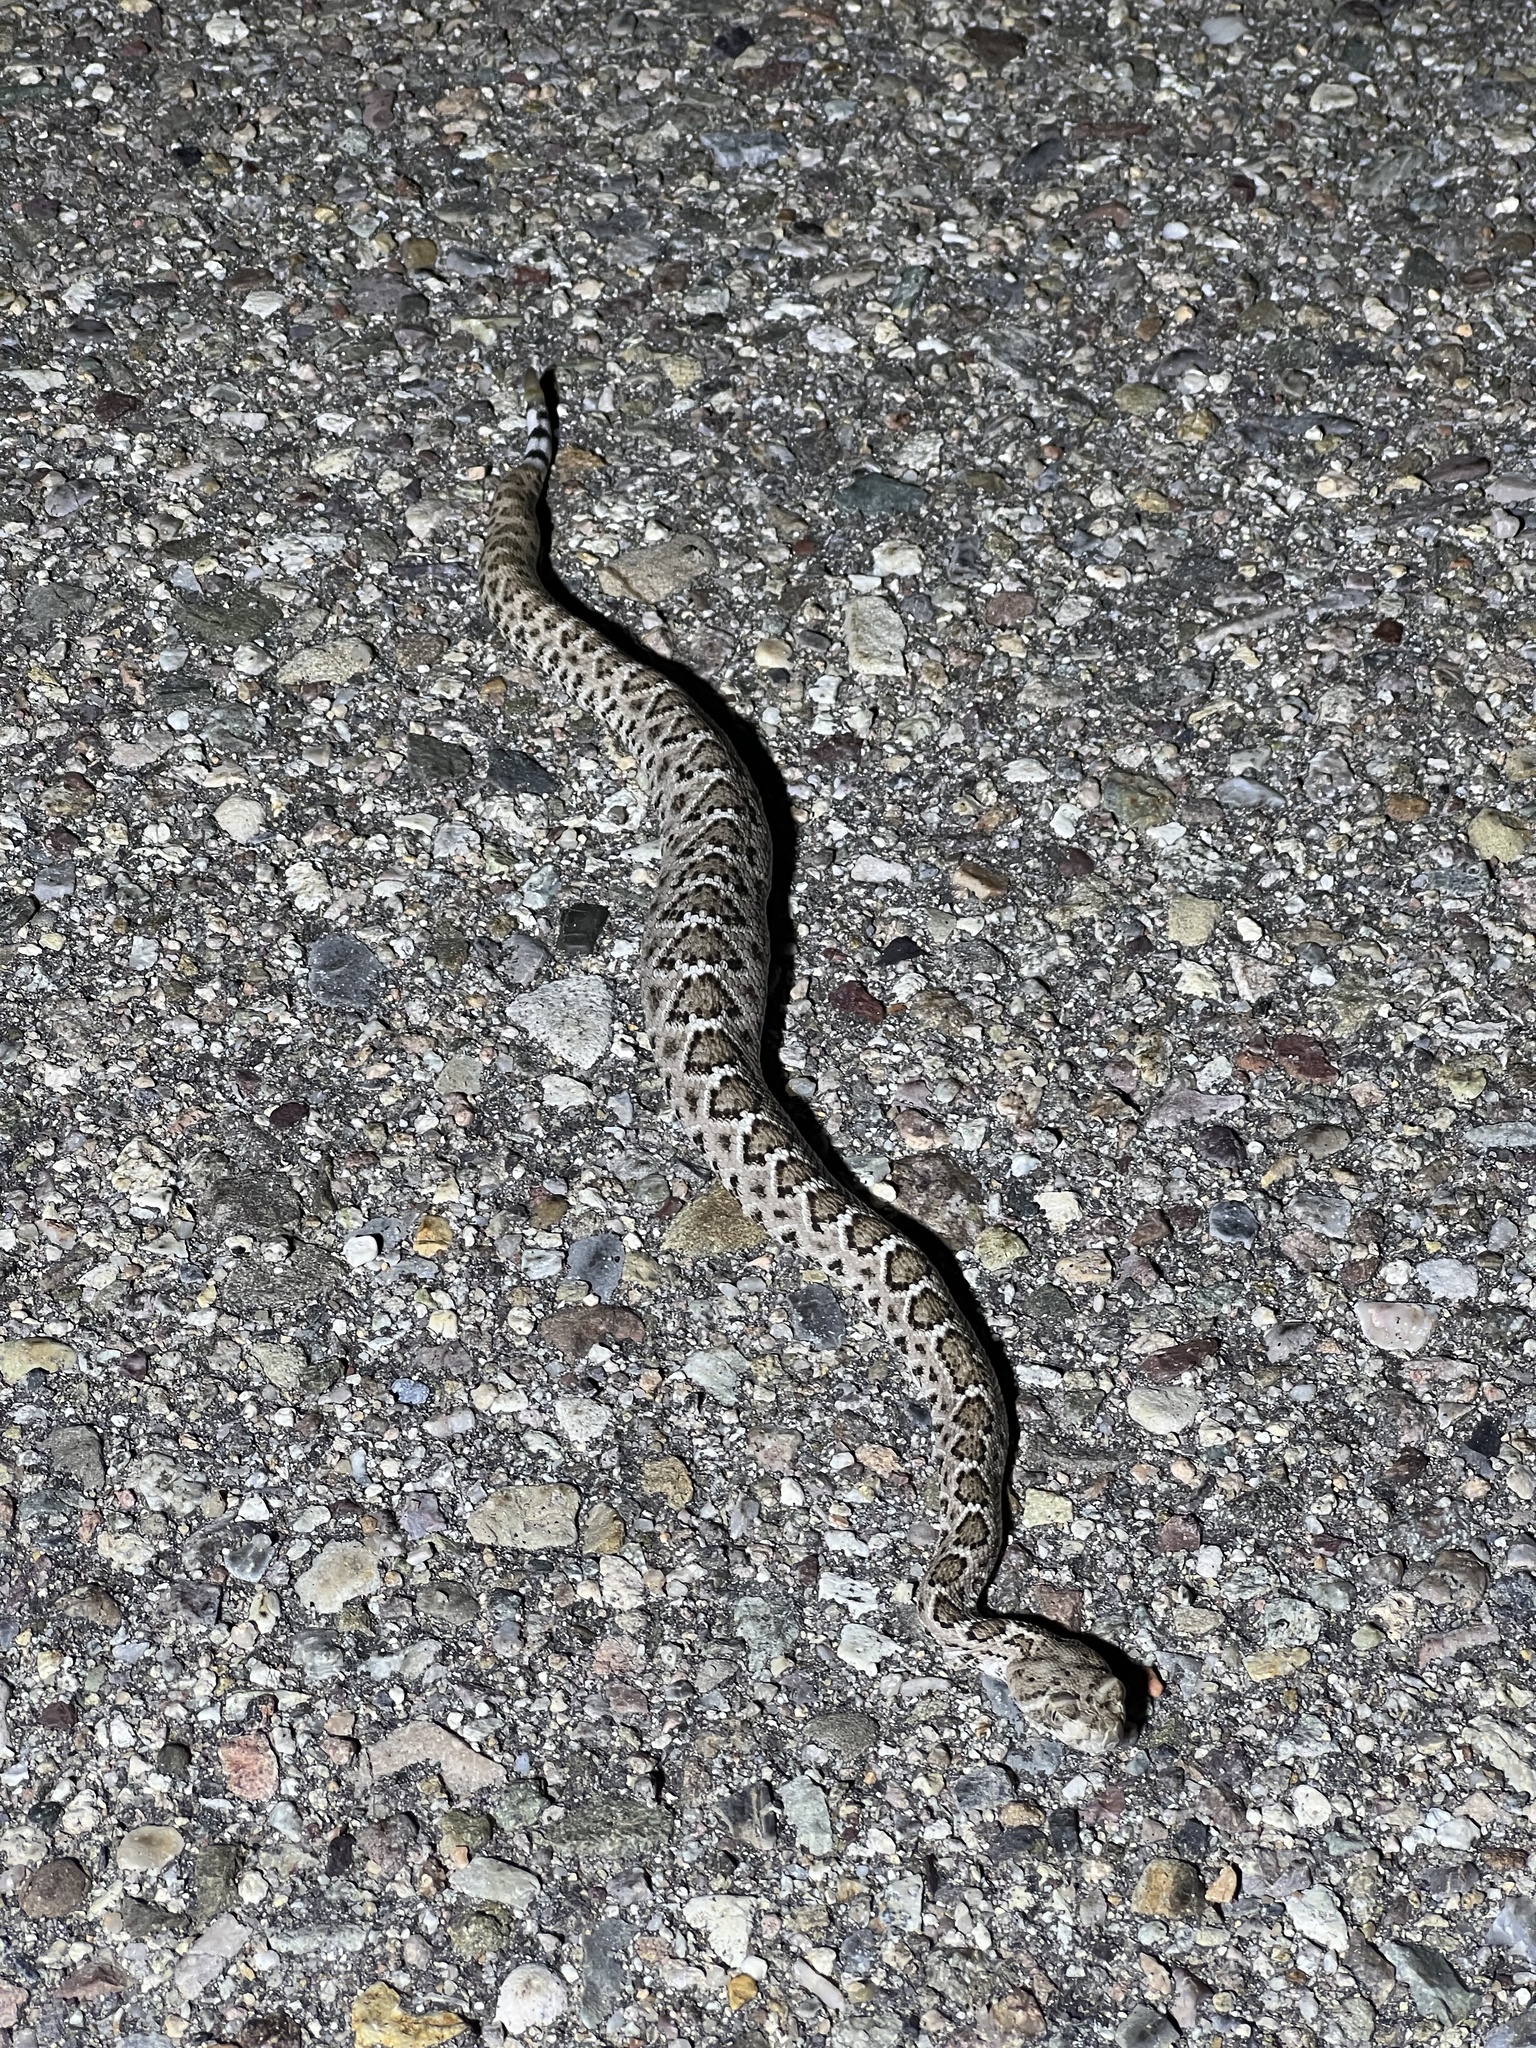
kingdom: Animalia
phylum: Chordata
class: Squamata
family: Viperidae
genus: Crotalus
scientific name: Crotalus atrox
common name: Western diamond-backed rattlesnake
